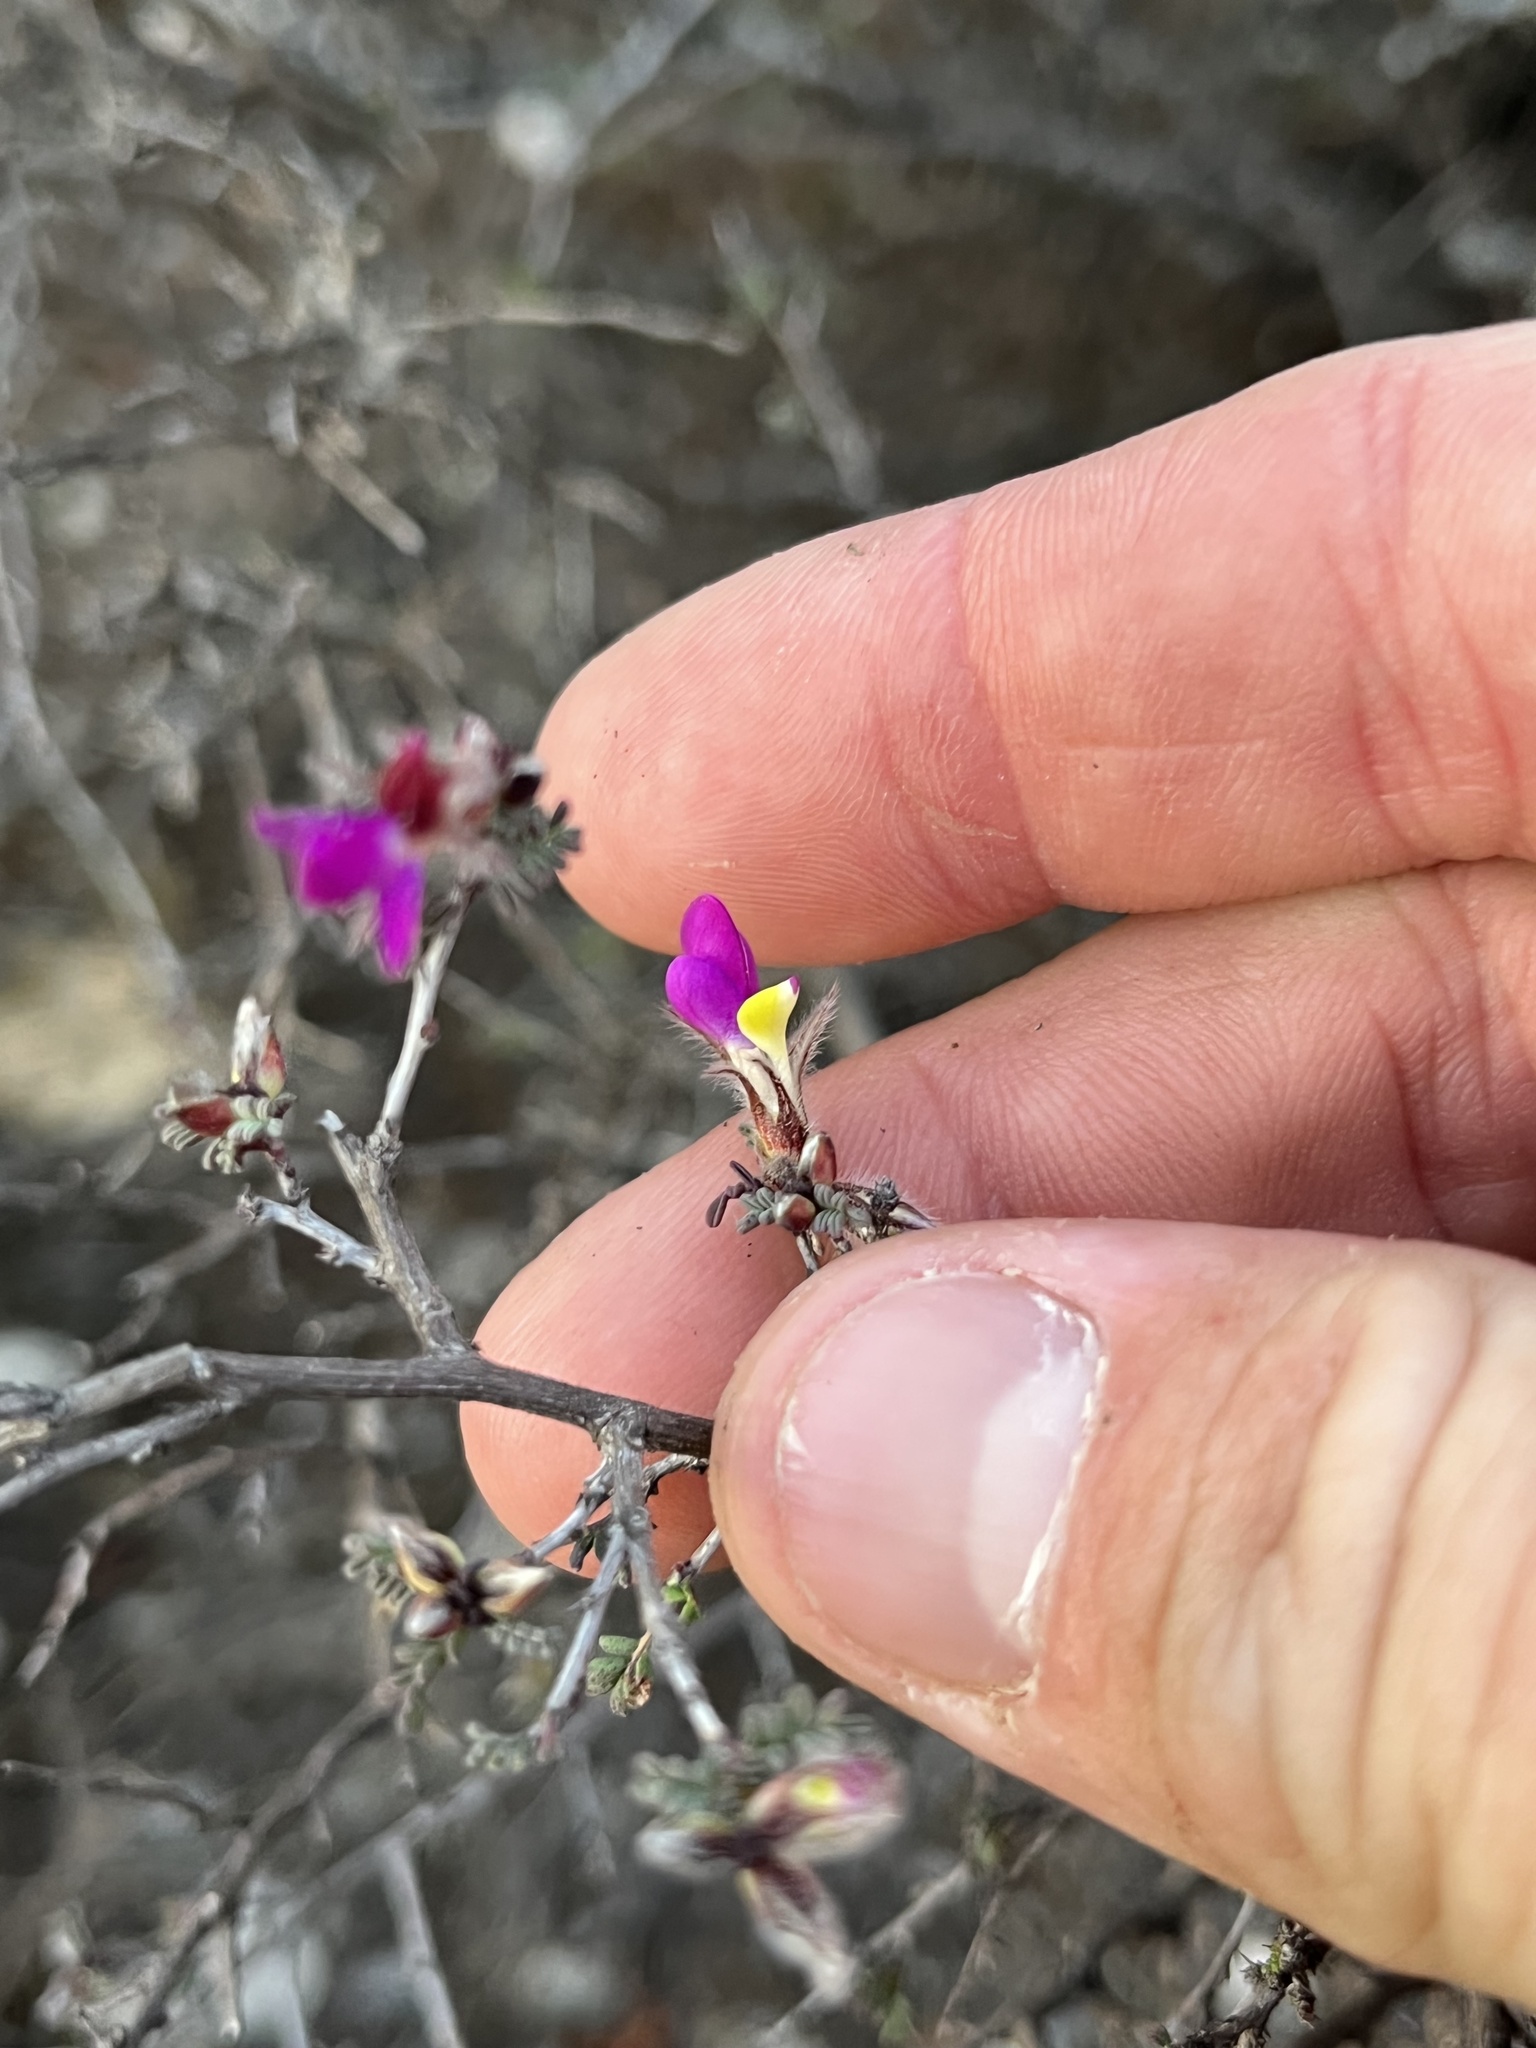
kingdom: Plantae
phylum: Tracheophyta
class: Magnoliopsida
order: Fabales
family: Fabaceae
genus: Dalea
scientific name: Dalea formosa
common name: Feather-plume dalea
